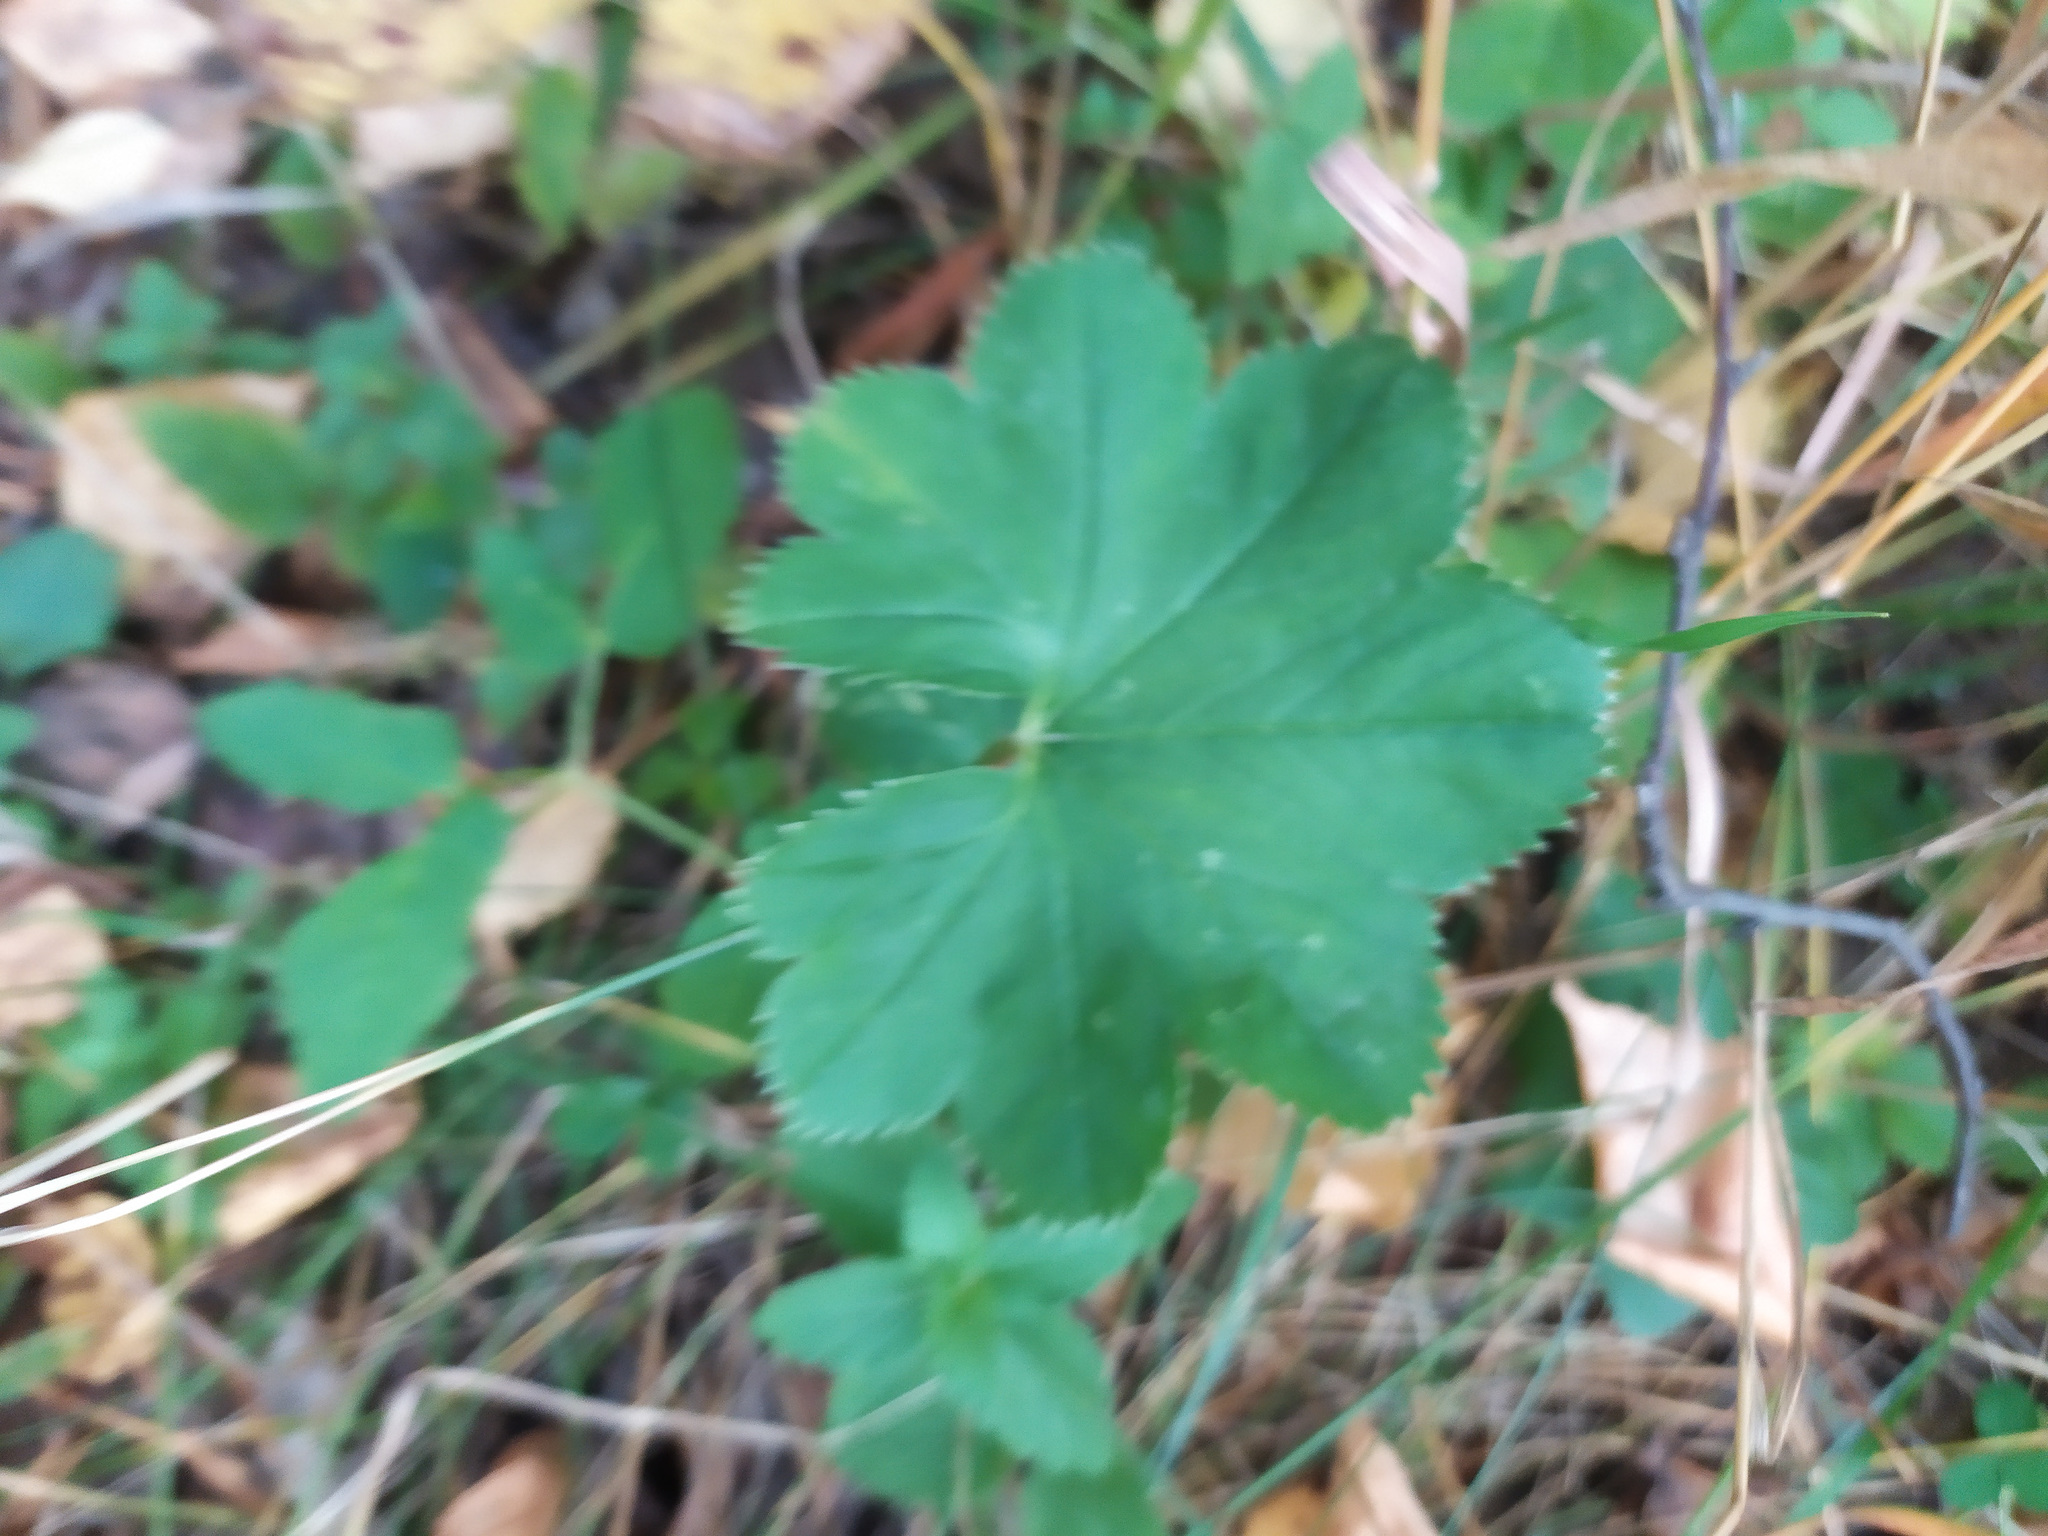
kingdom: Plantae
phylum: Tracheophyta
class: Magnoliopsida
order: Rosales
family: Rosaceae
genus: Alchemilla
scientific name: Alchemilla
